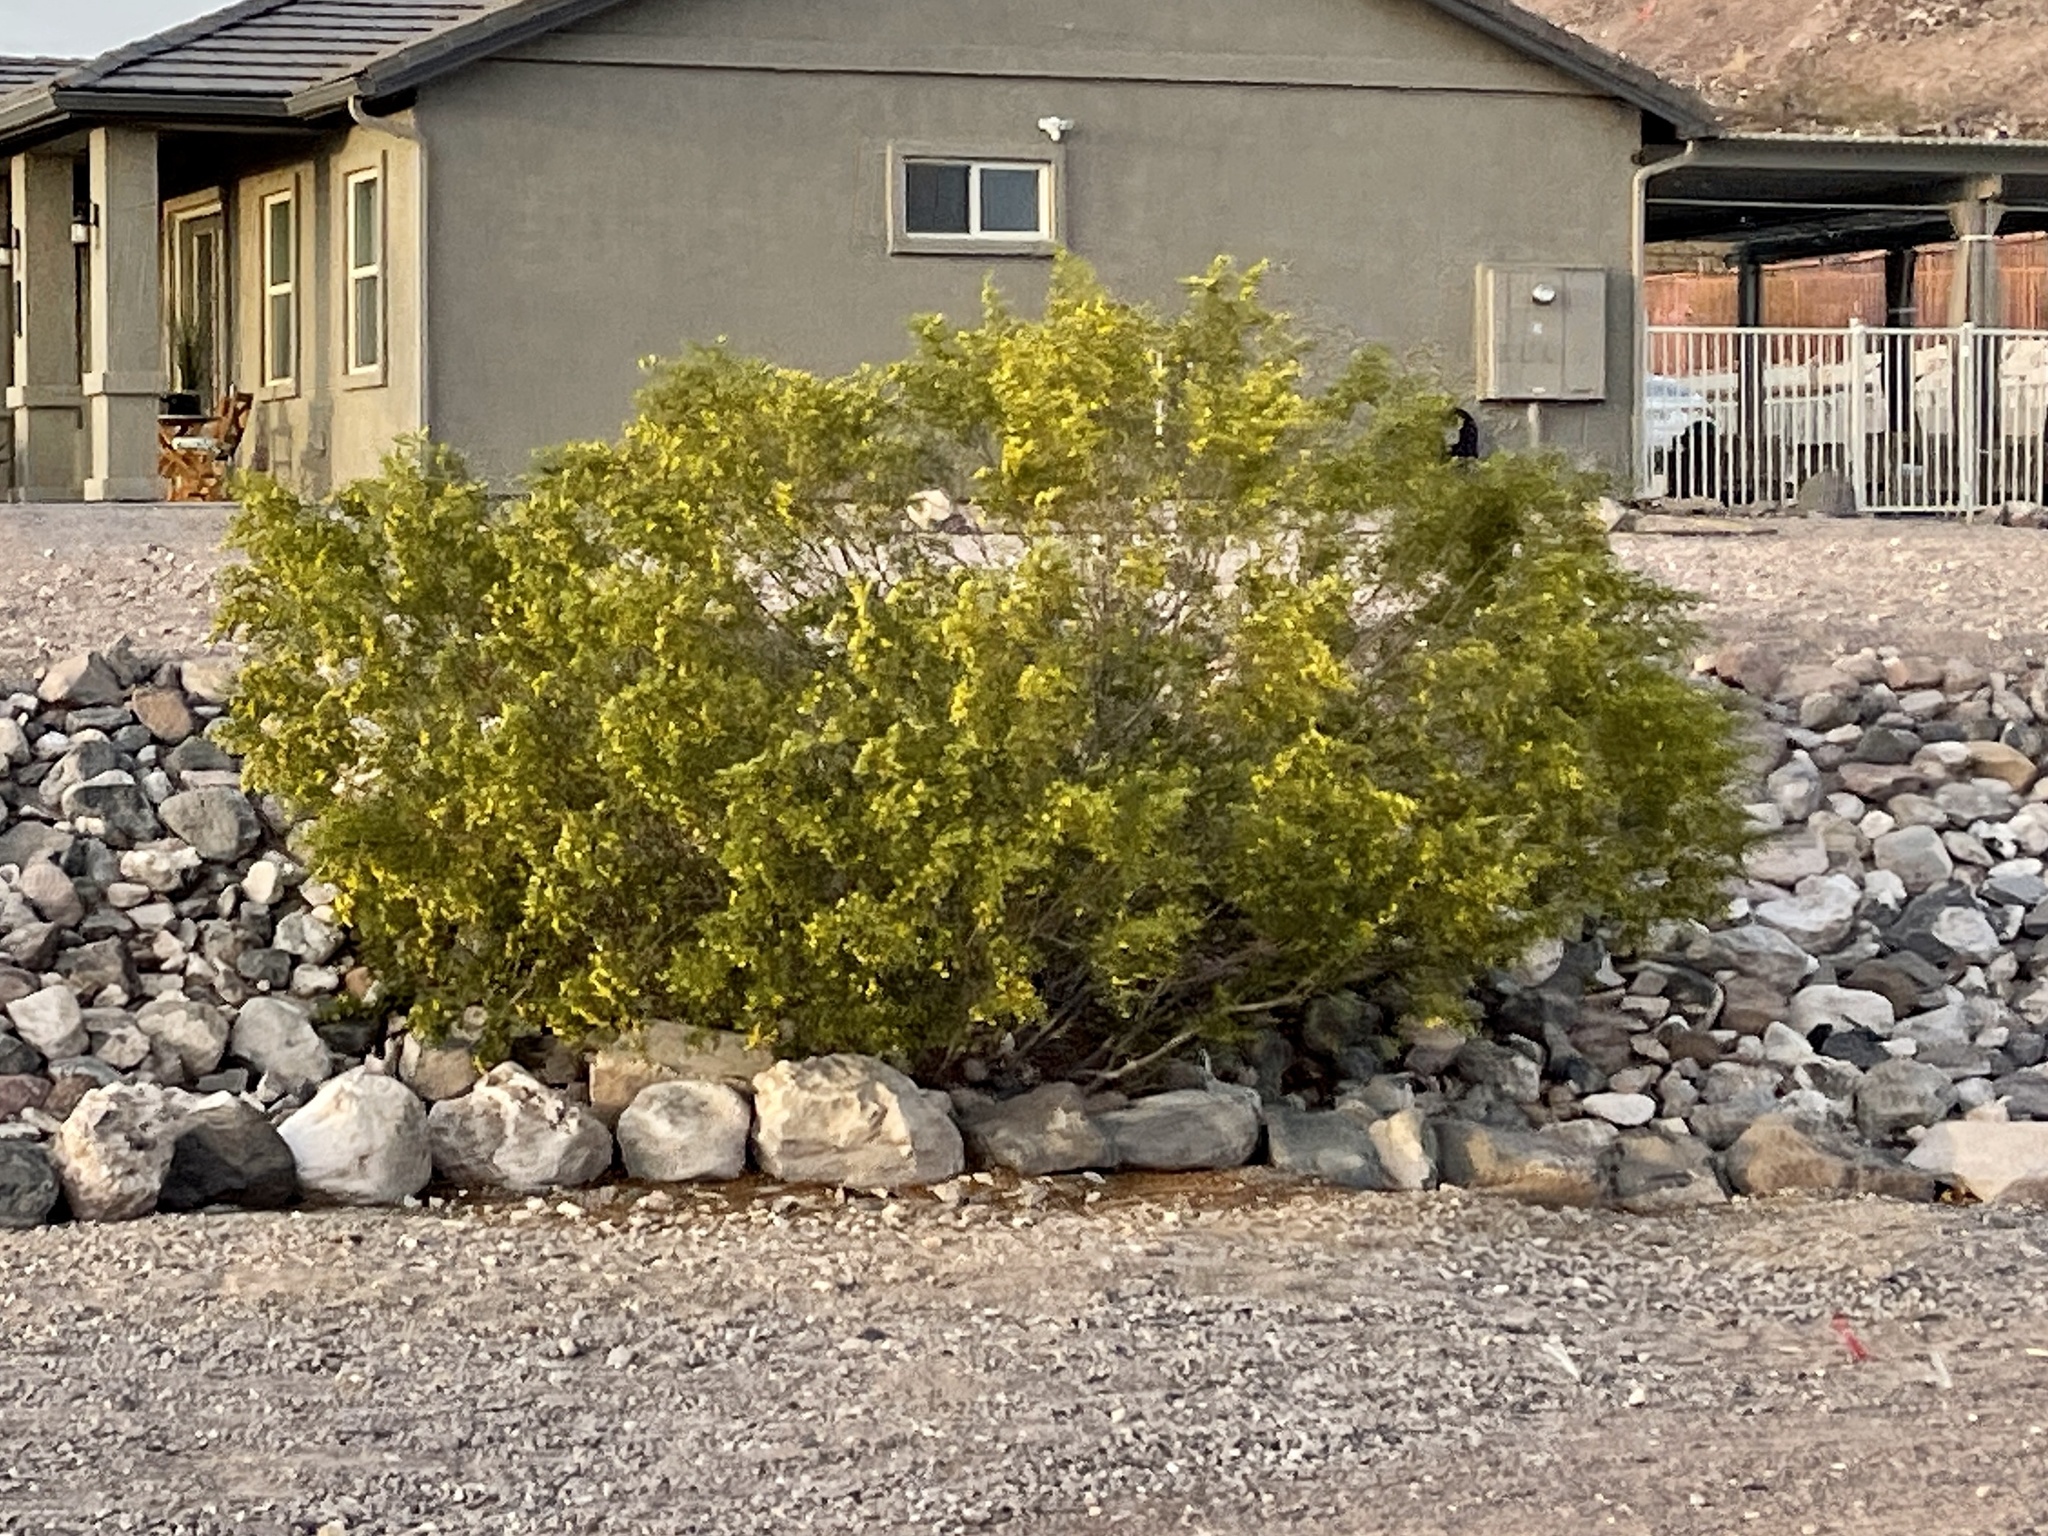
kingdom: Plantae
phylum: Tracheophyta
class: Magnoliopsida
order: Zygophyllales
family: Zygophyllaceae
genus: Larrea
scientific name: Larrea tridentata
